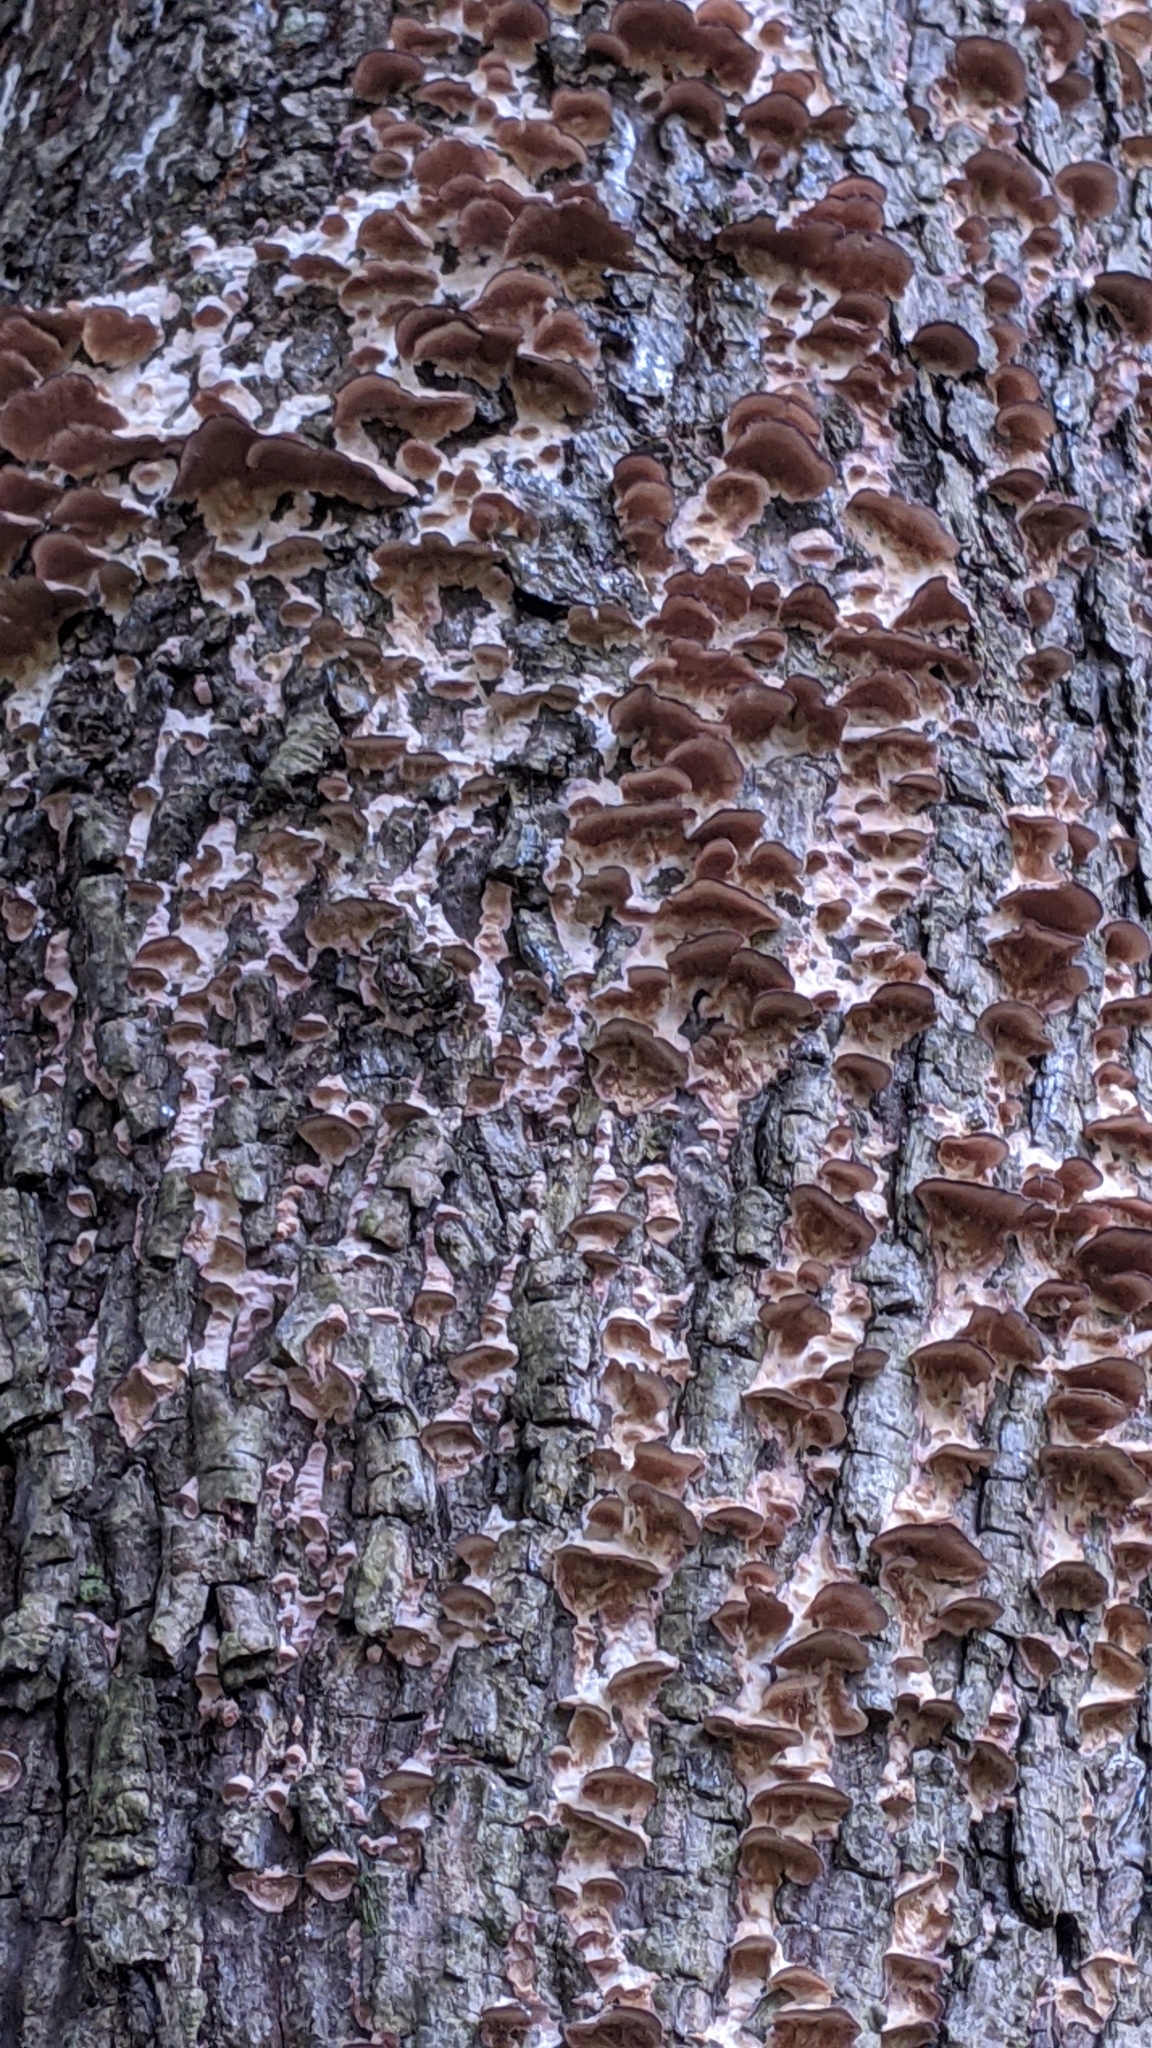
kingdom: Fungi
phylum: Basidiomycota
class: Agaricomycetes
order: Hymenochaetales
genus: Trichaptum
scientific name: Trichaptum biforme
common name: Violet-toothed polypore
